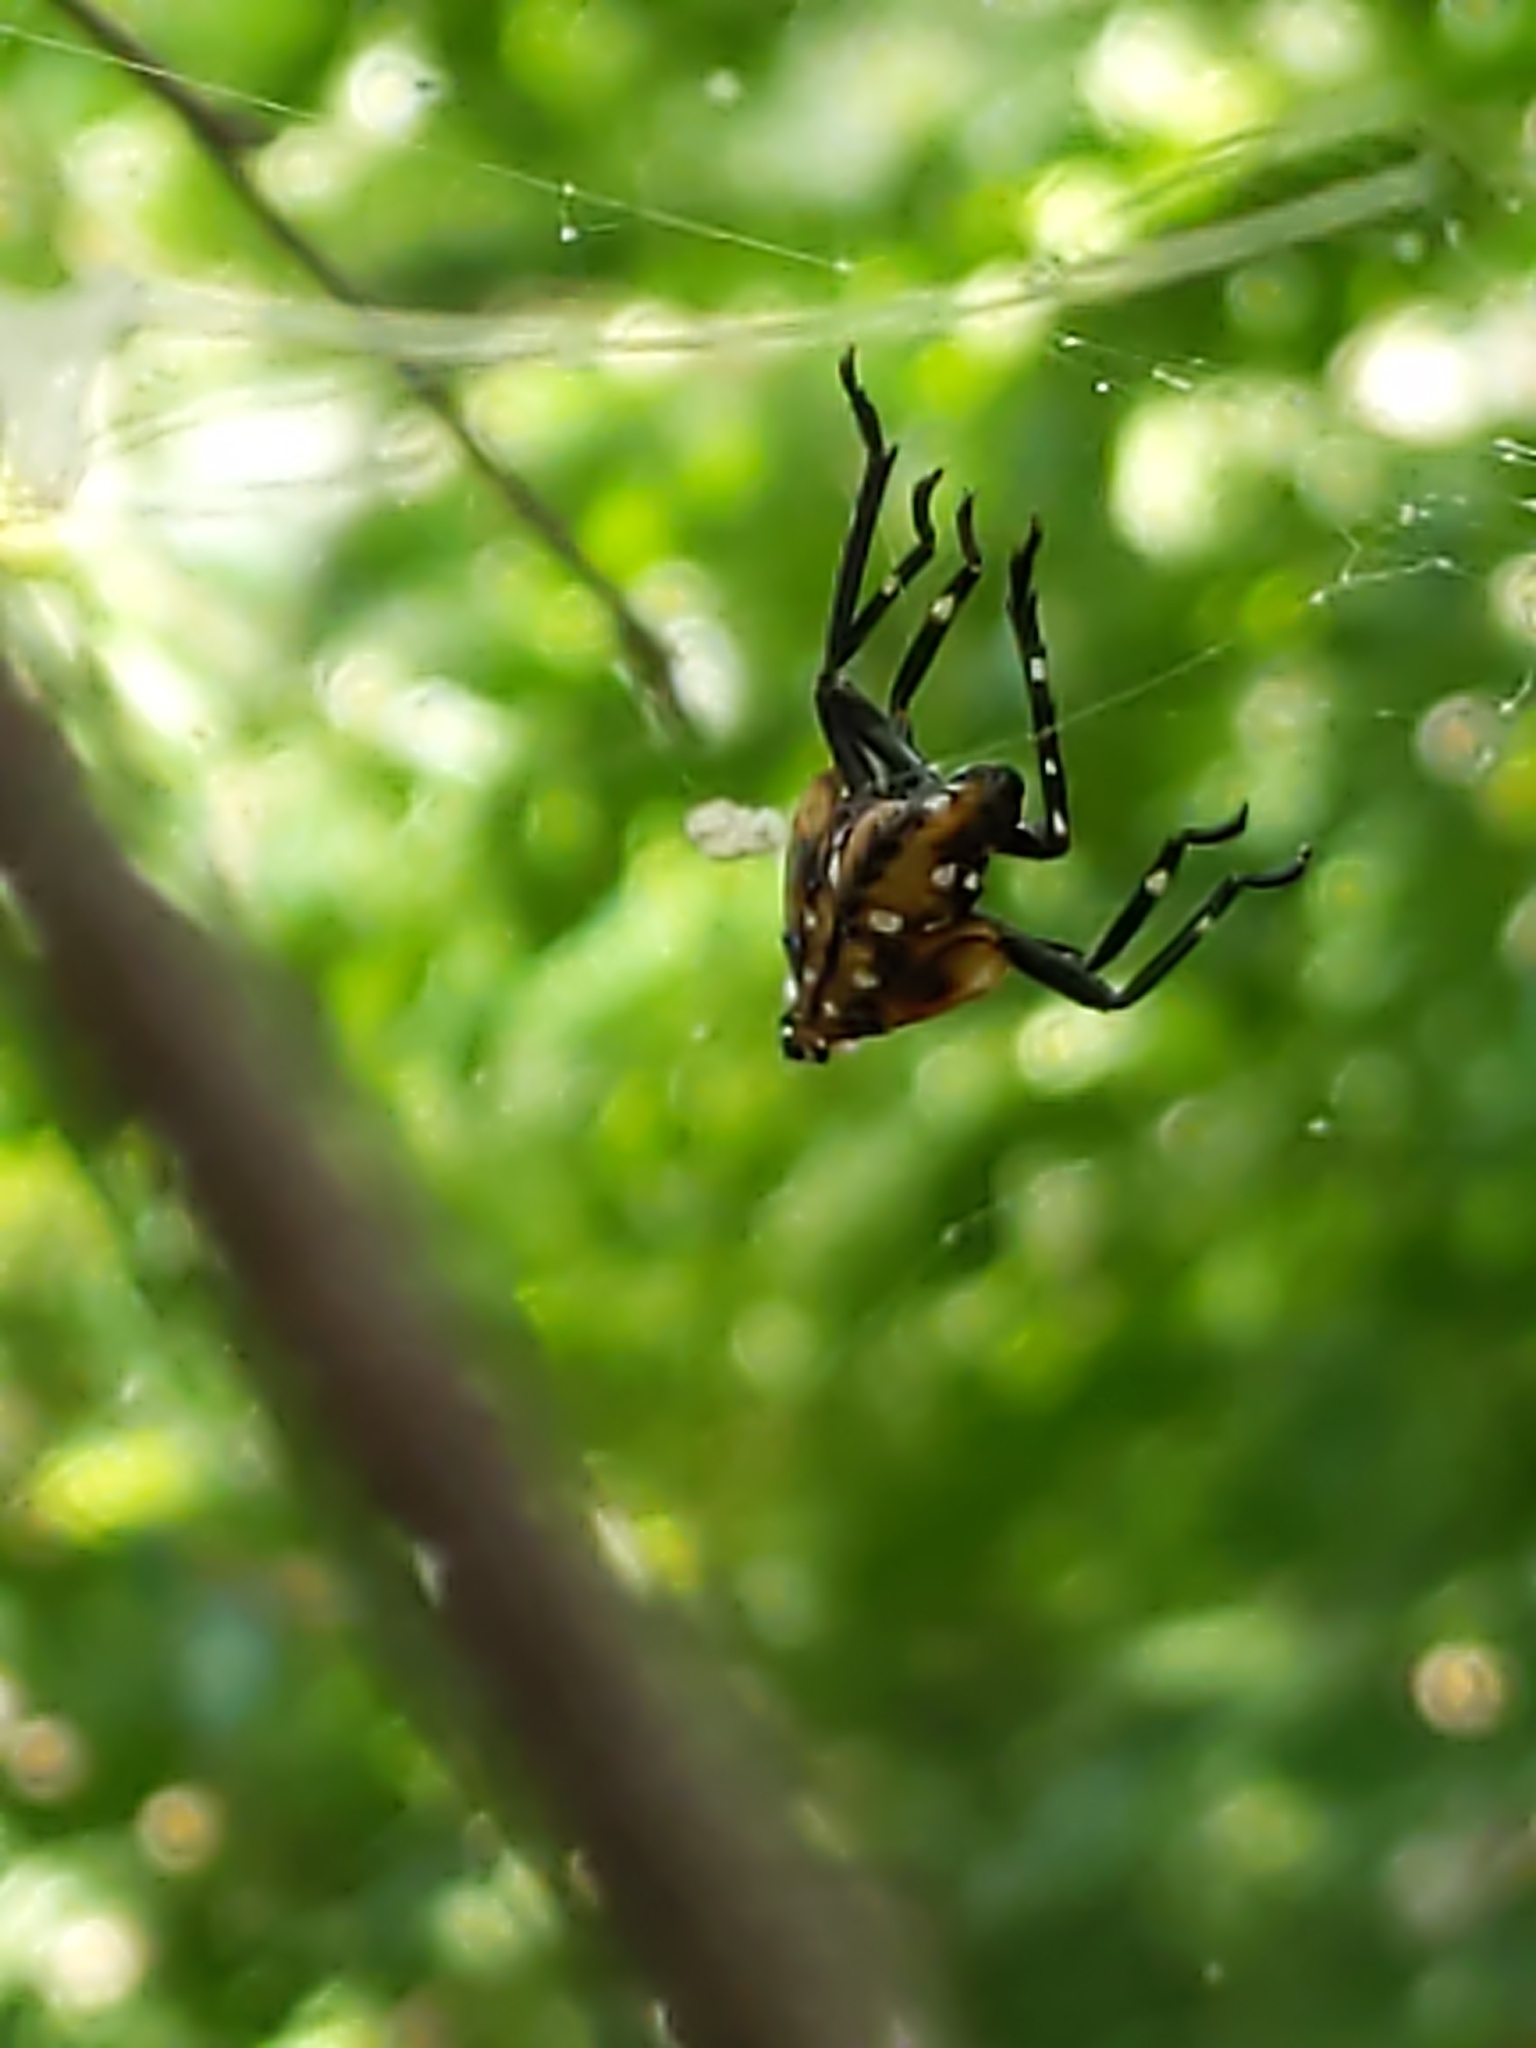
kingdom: Animalia
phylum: Arthropoda
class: Insecta
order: Hemiptera
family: Fulgoridae
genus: Lycorma
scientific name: Lycorma delicatula
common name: Spotted lanternfly
